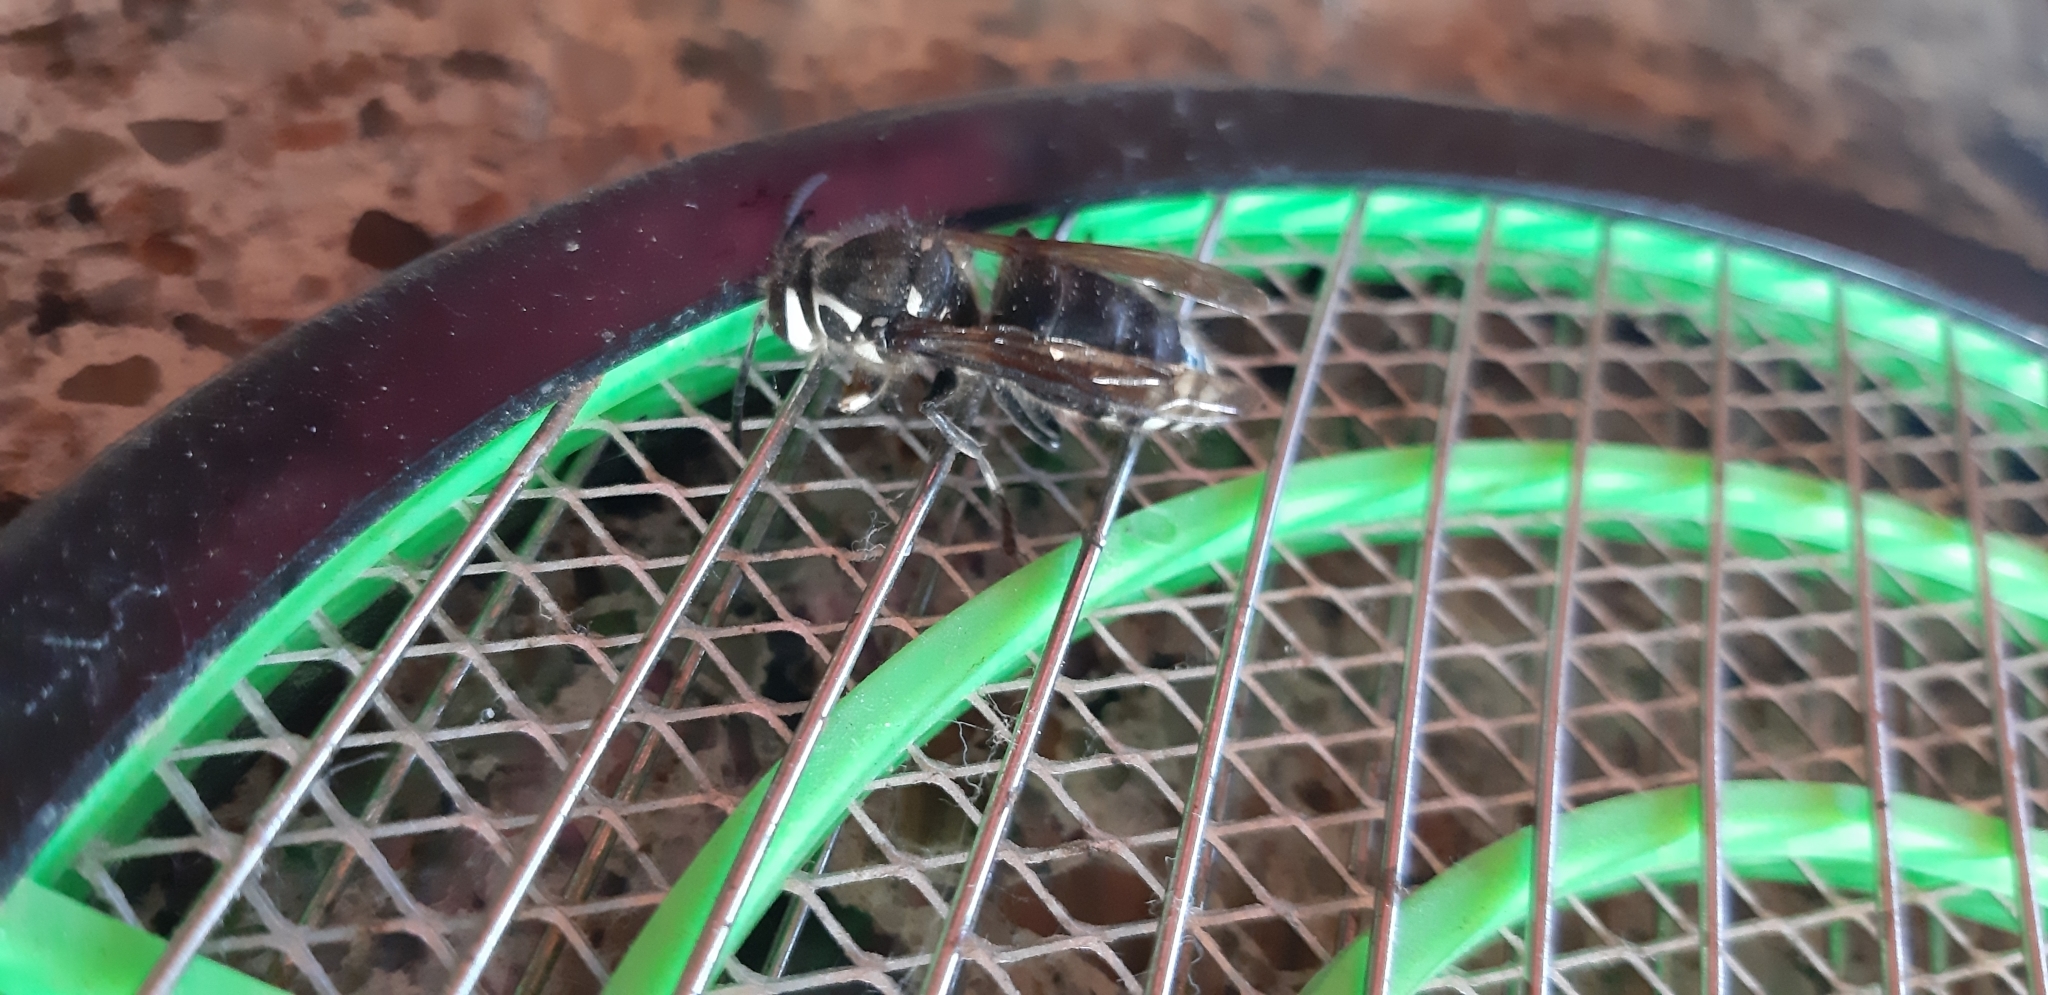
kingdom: Animalia
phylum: Arthropoda
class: Insecta
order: Hymenoptera
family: Vespidae
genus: Dolichovespula
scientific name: Dolichovespula maculata
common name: Bald-faced hornet
